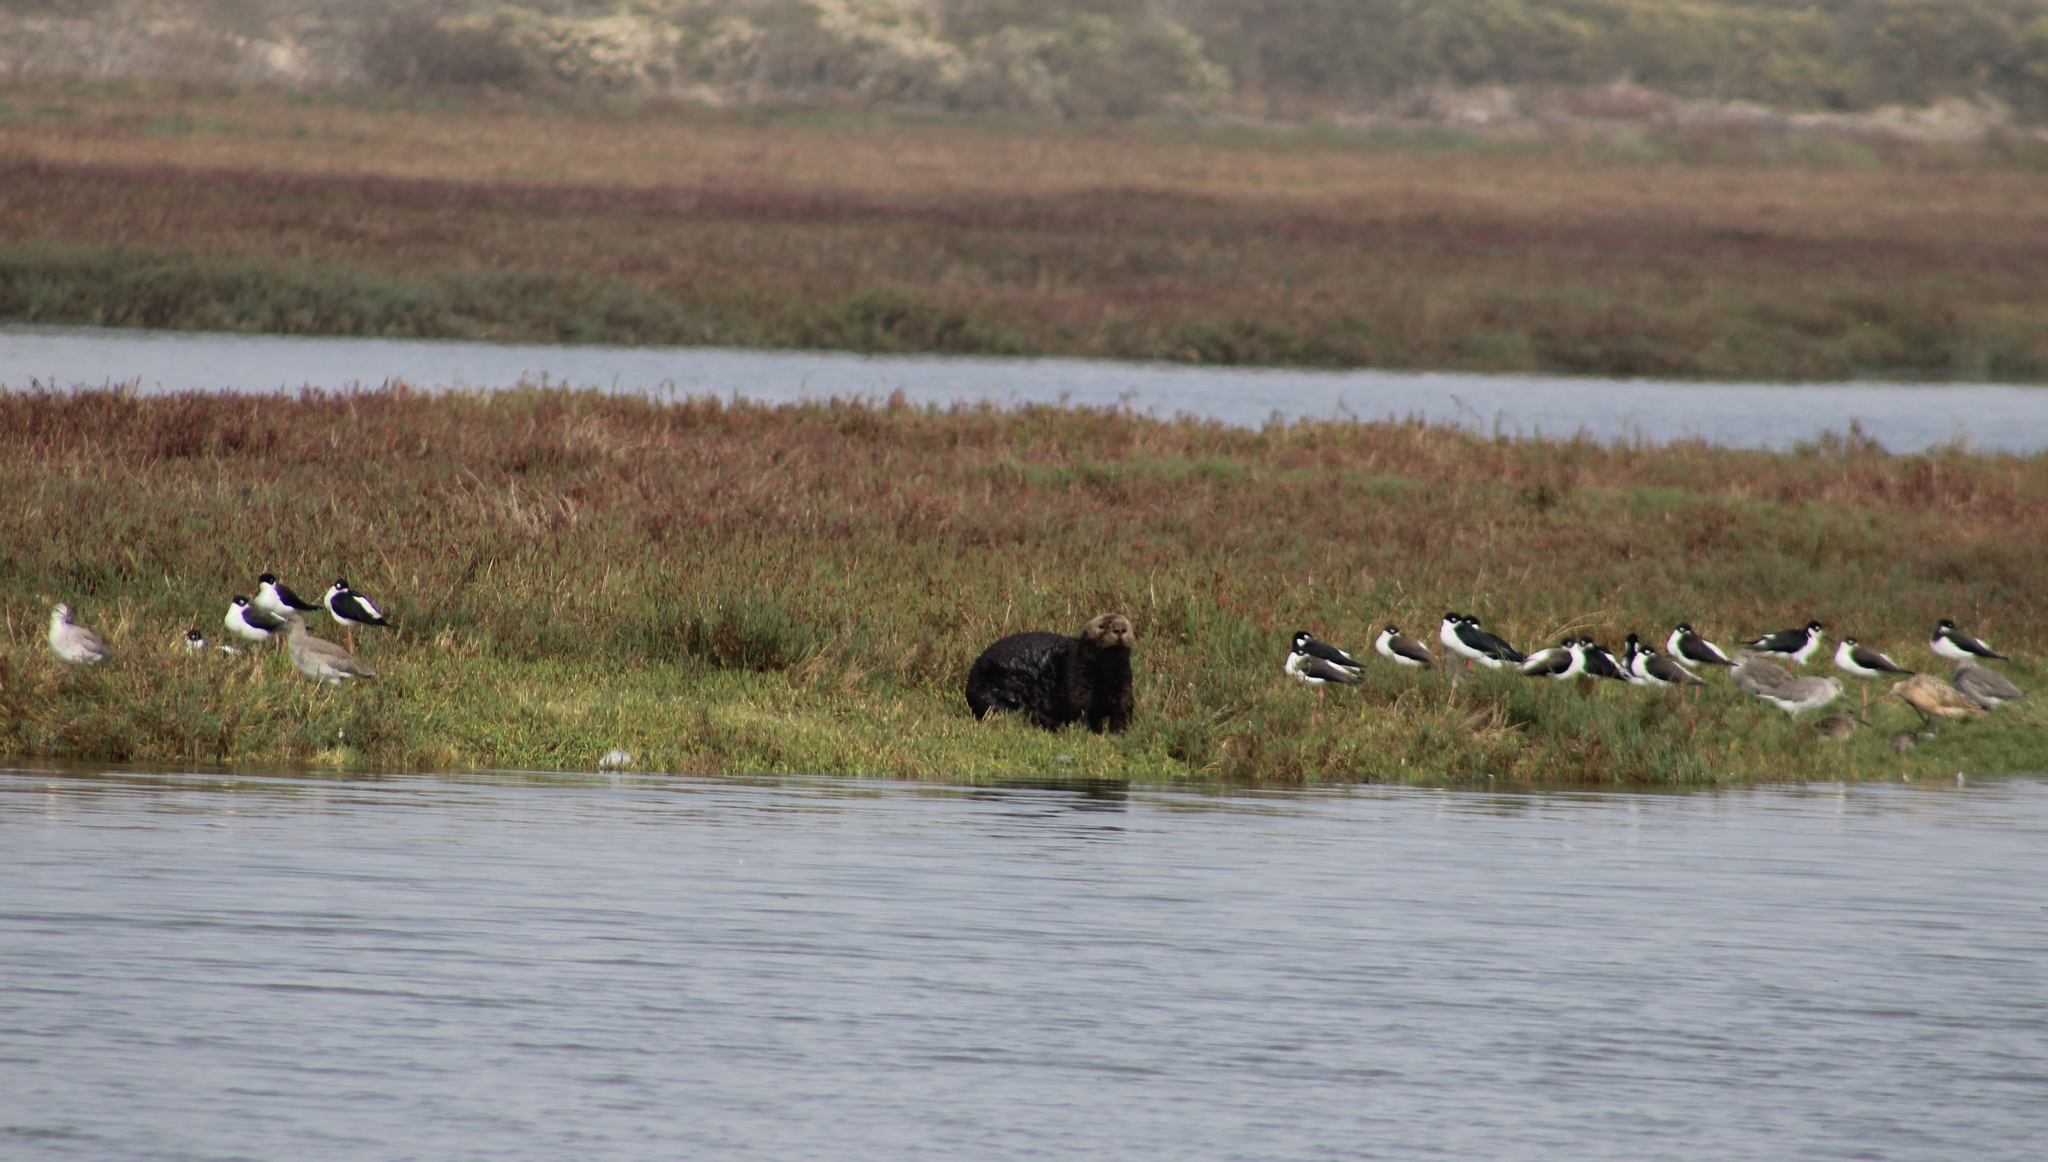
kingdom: Animalia
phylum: Chordata
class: Mammalia
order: Carnivora
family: Mustelidae
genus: Enhydra
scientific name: Enhydra lutris
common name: Sea otter
